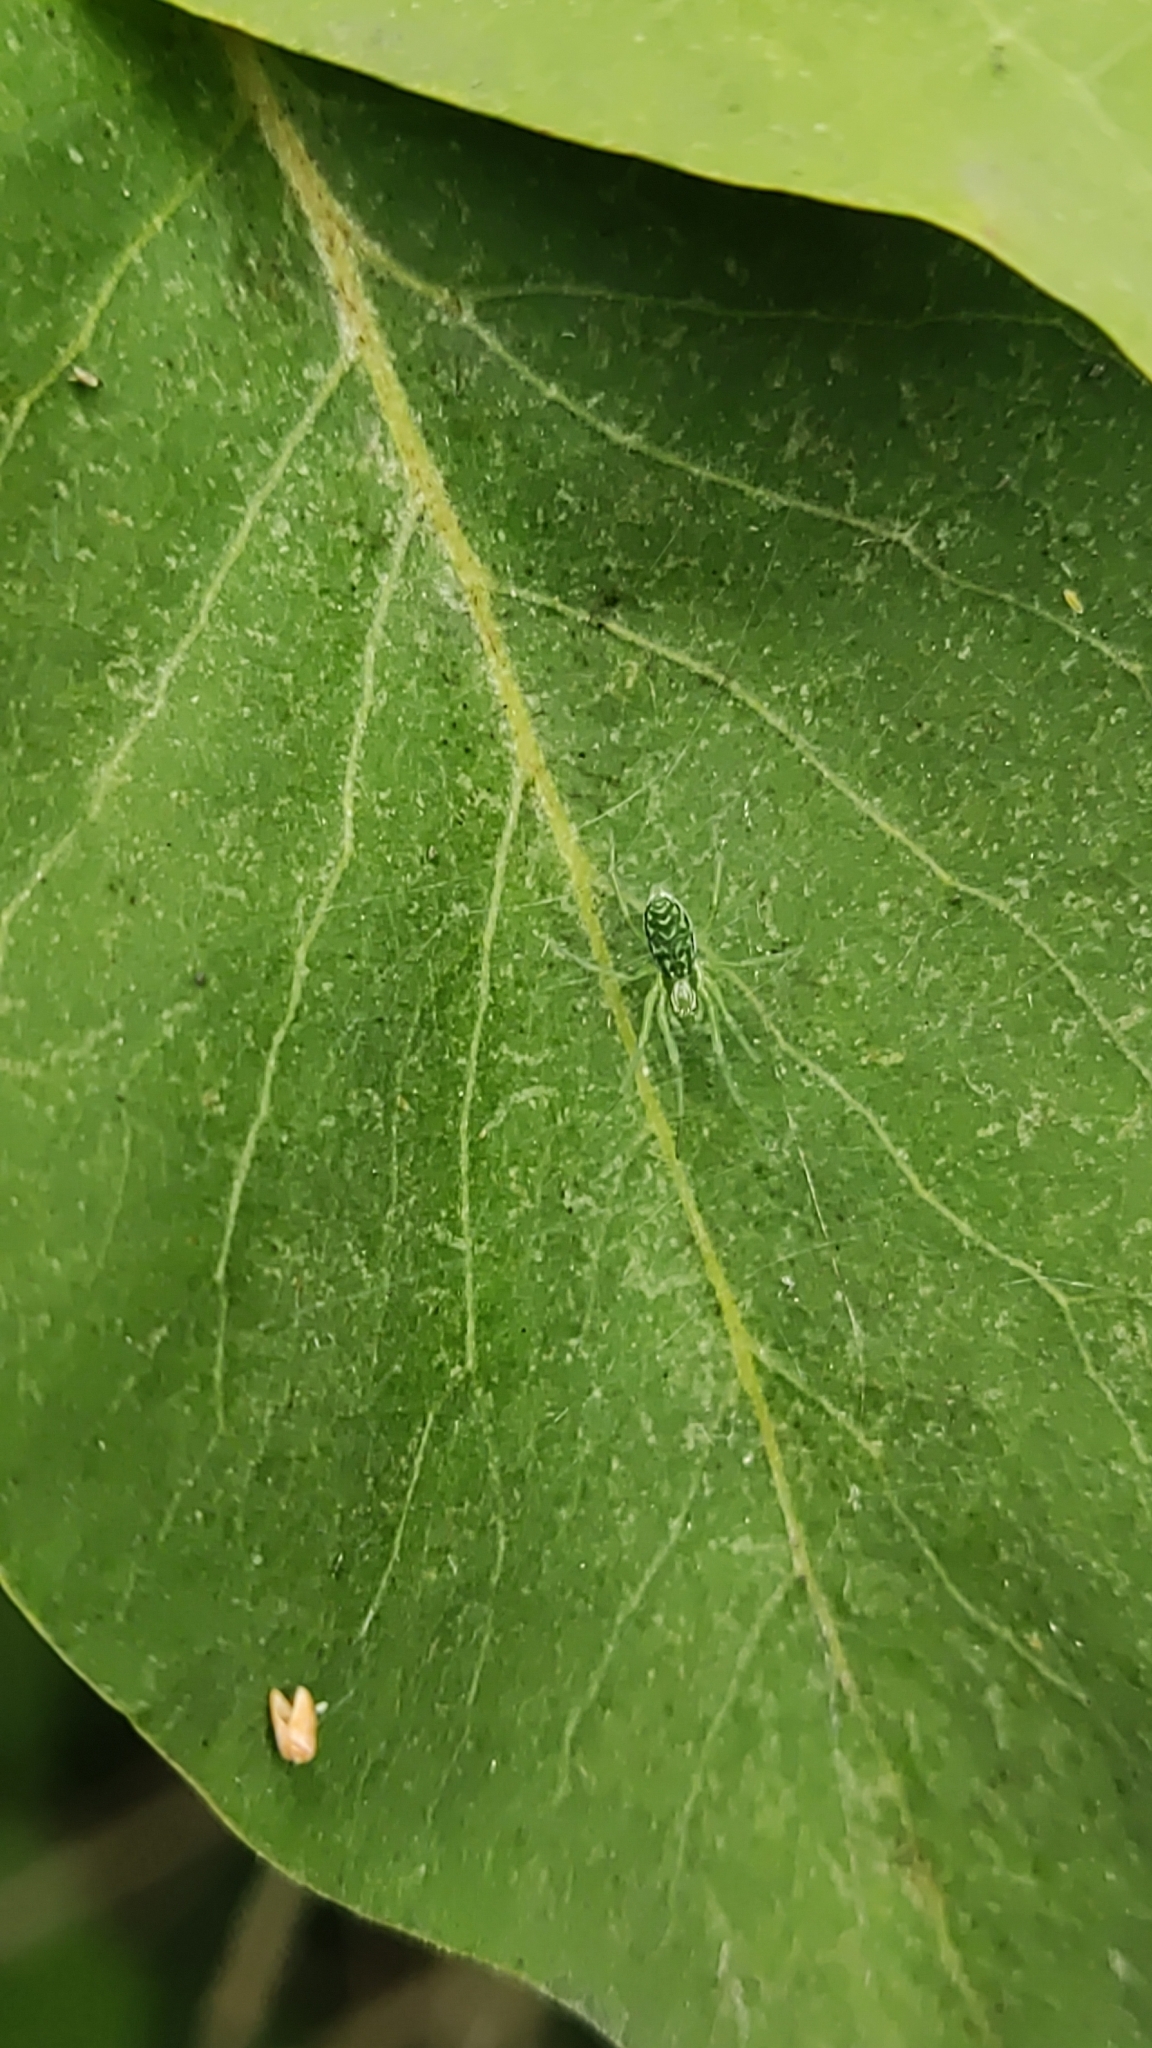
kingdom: Animalia
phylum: Arthropoda
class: Arachnida
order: Araneae
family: Dictynidae
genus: Nigma
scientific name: Nigma walckenaeri
